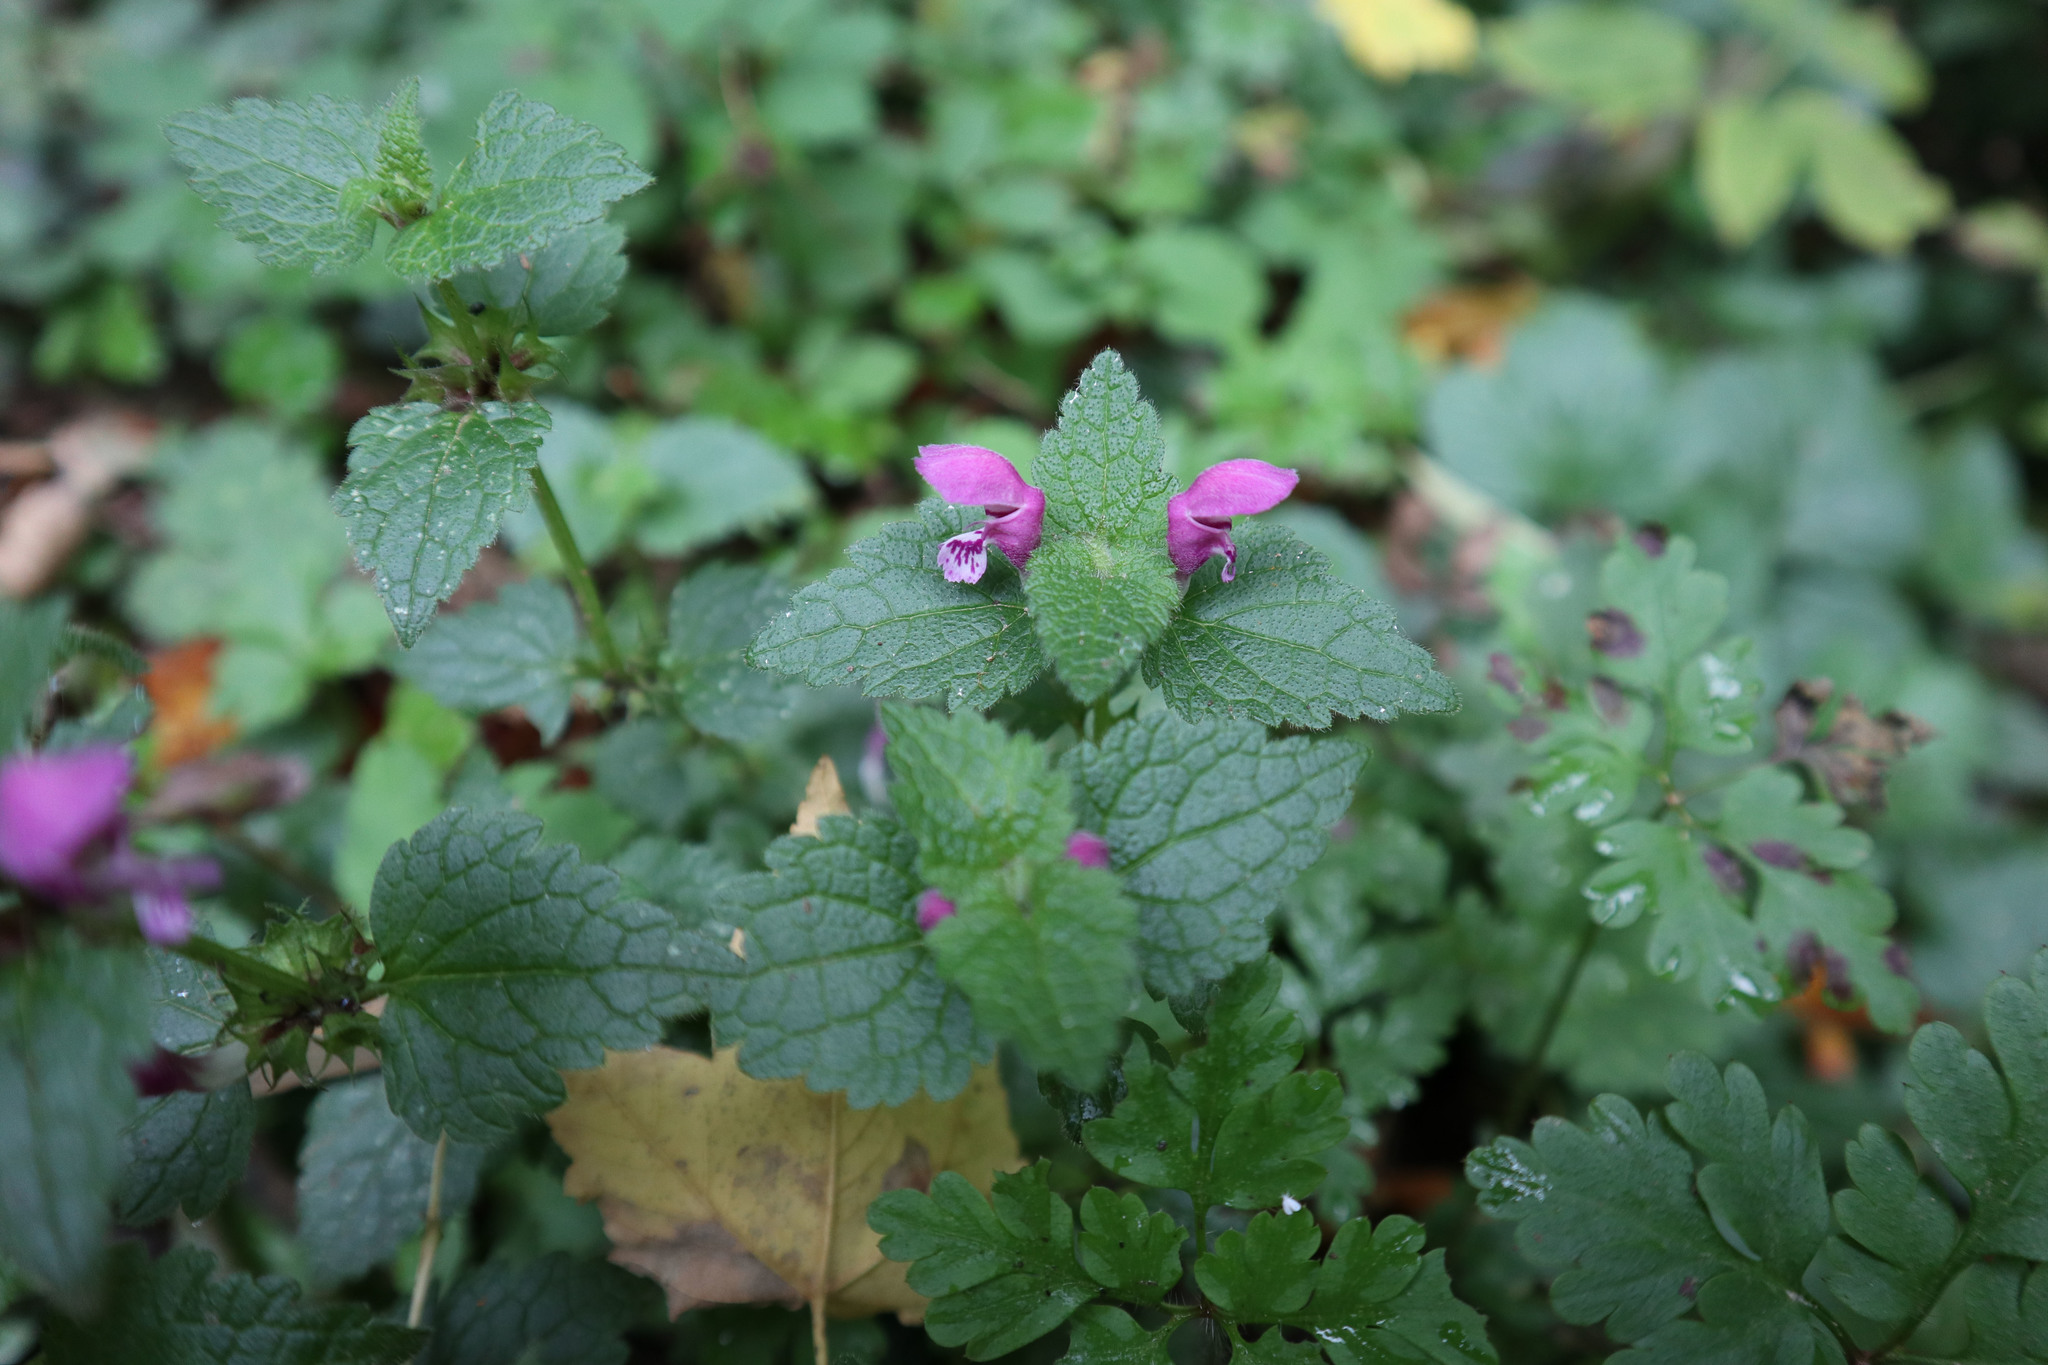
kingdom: Plantae
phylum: Tracheophyta
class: Magnoliopsida
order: Lamiales
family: Lamiaceae
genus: Lamium
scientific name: Lamium maculatum
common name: Spotted dead-nettle
